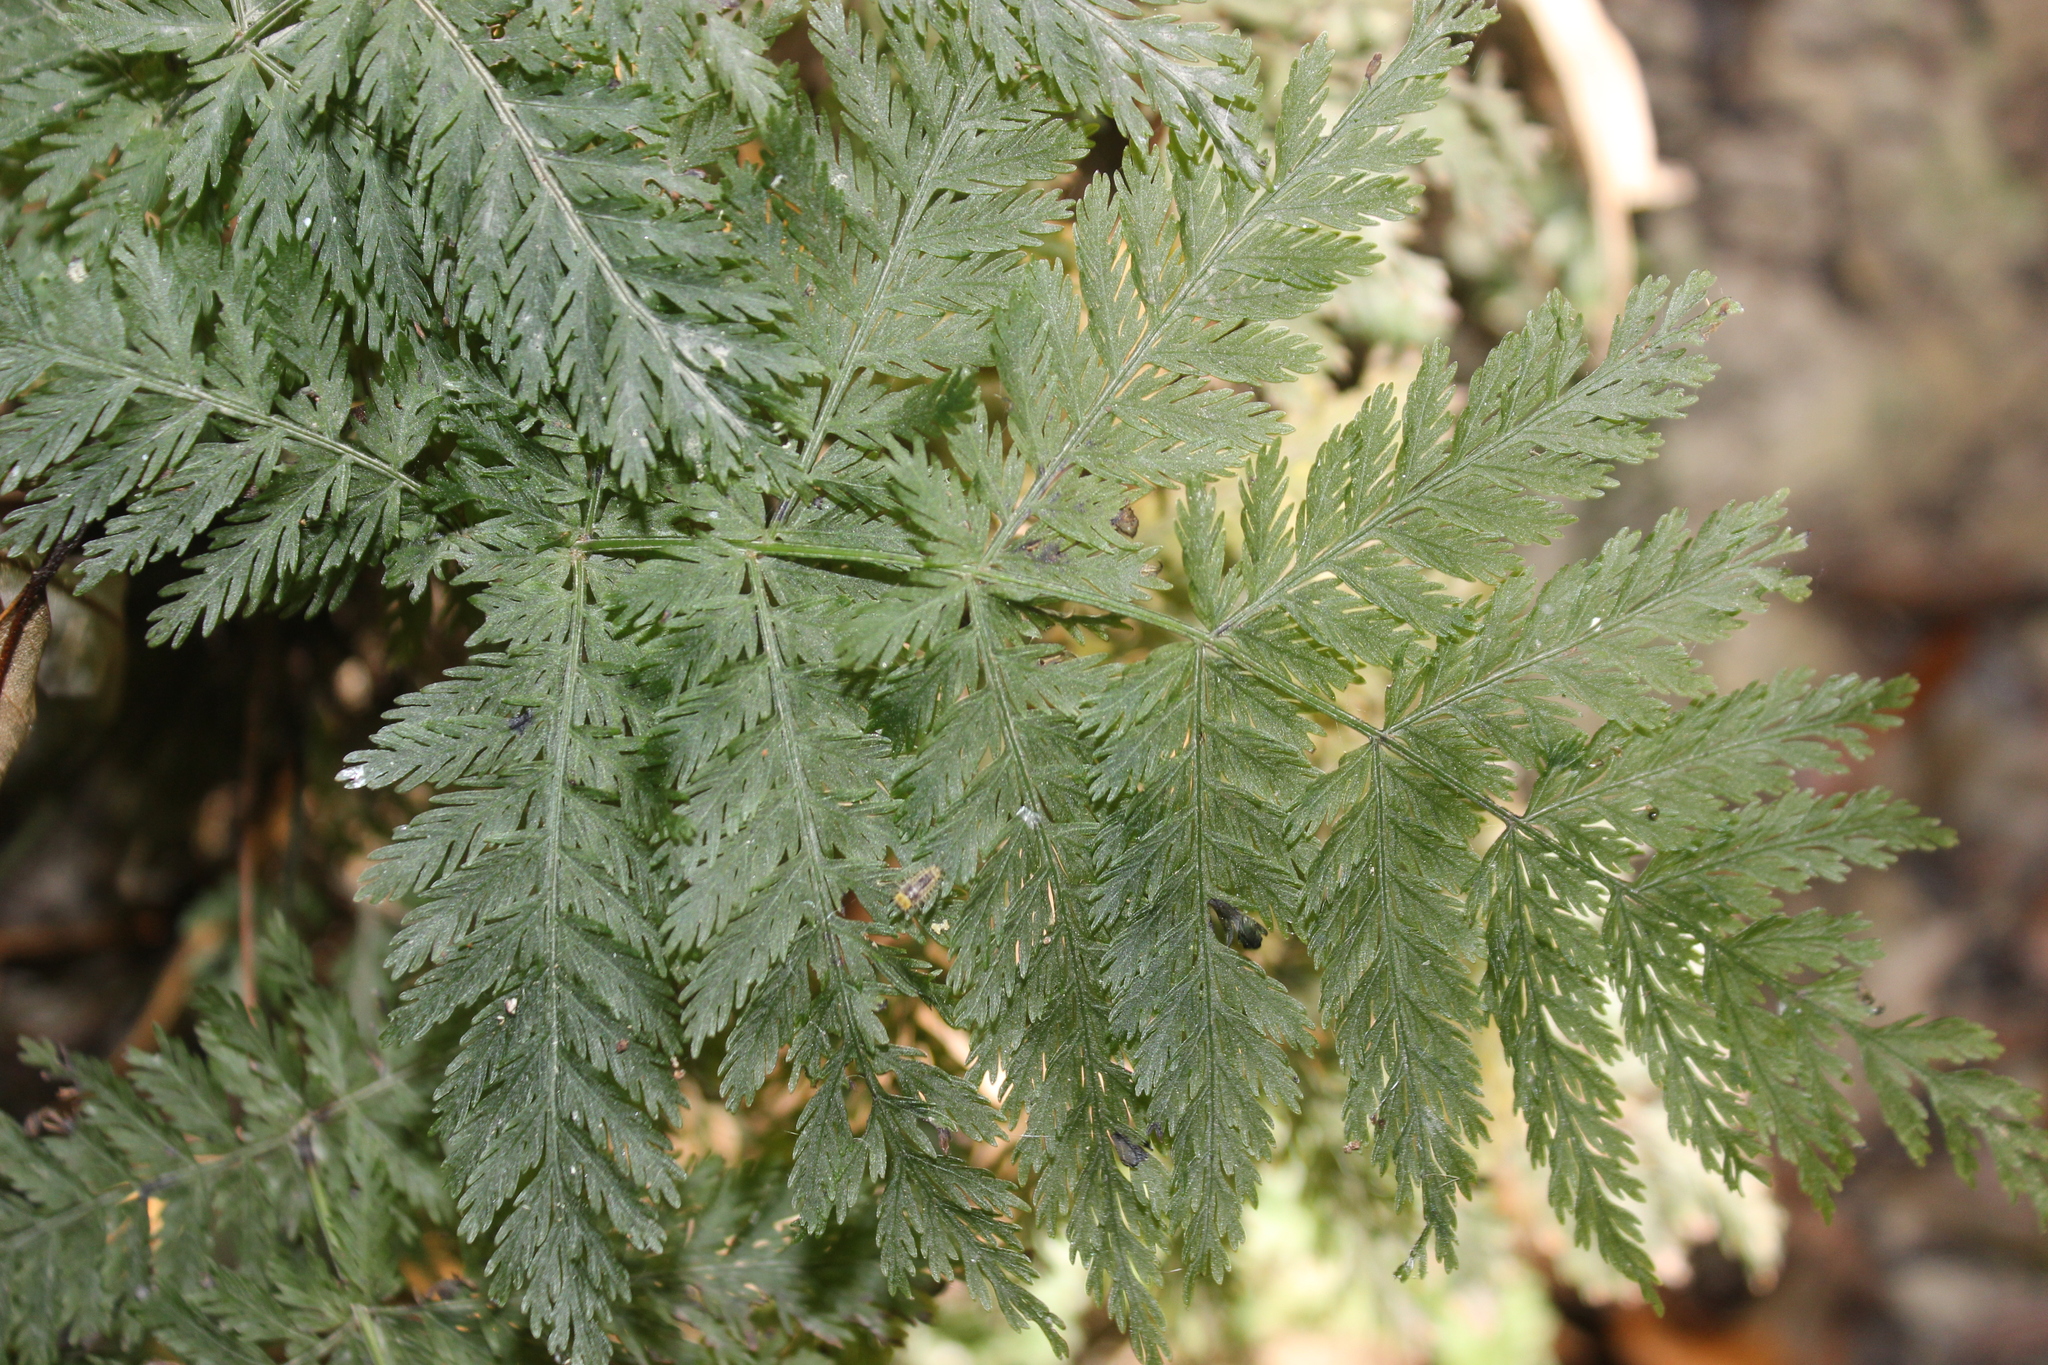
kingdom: Plantae
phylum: Tracheophyta
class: Polypodiopsida
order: Osmundales
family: Osmundaceae
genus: Leptopteris
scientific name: Leptopteris hymenophylloides
